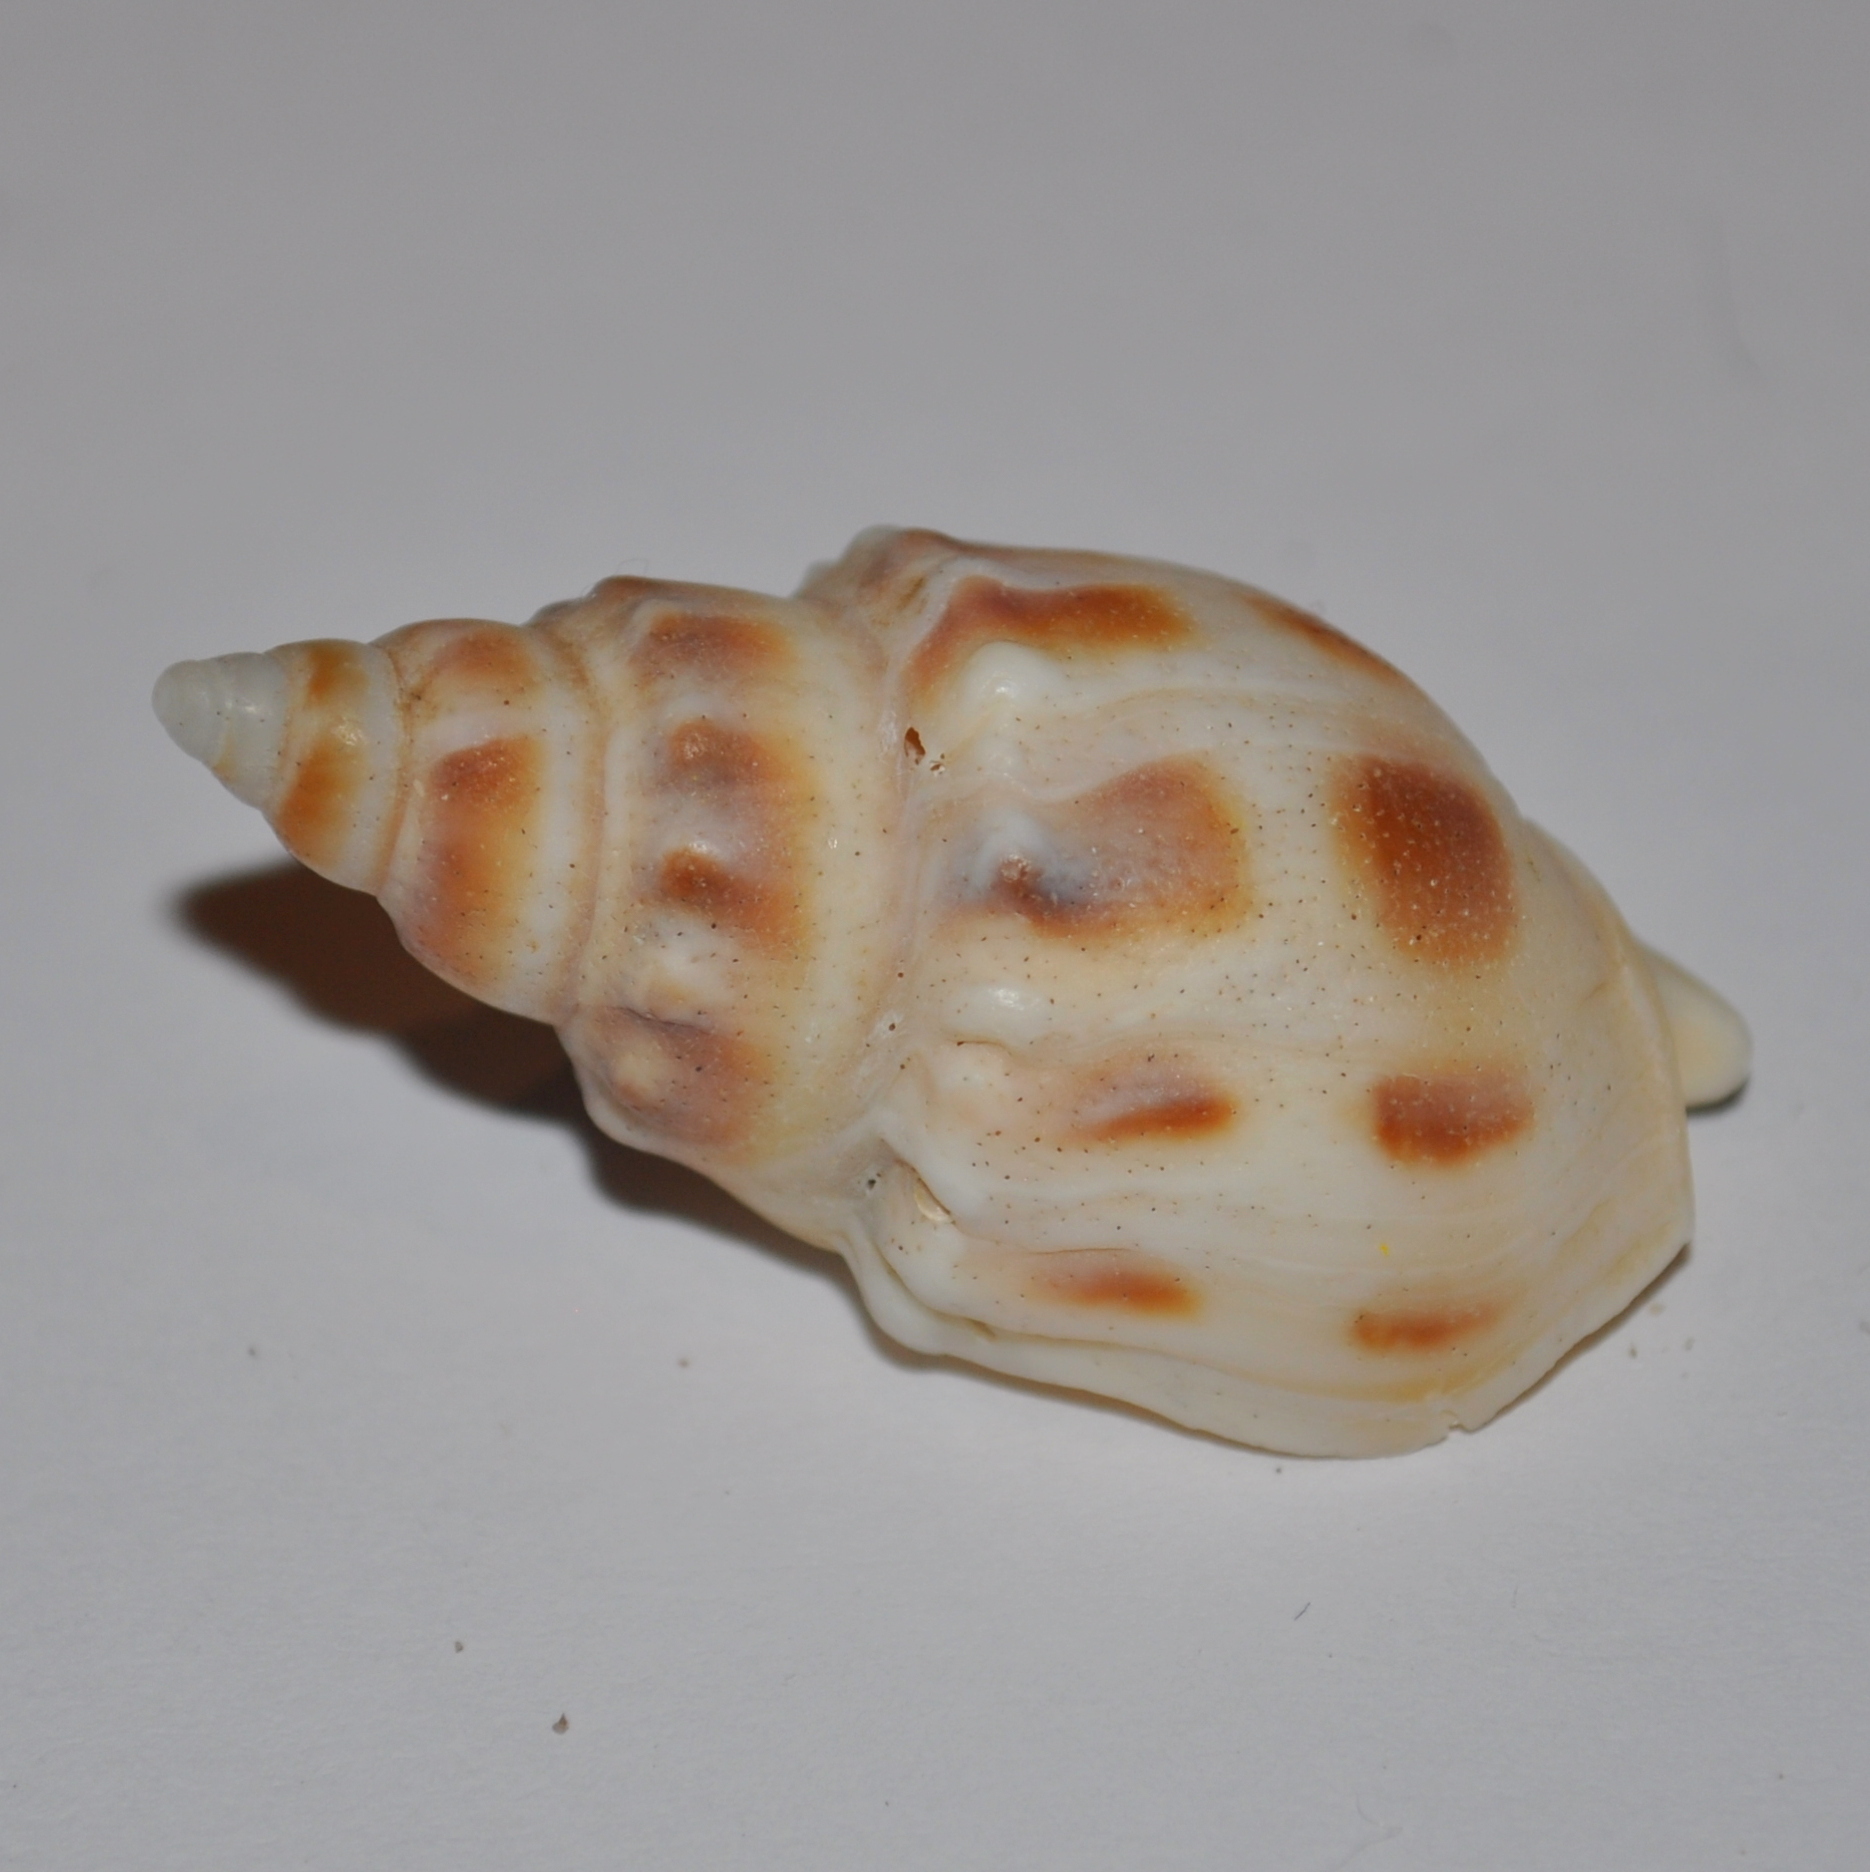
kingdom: Animalia
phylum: Mollusca
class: Gastropoda
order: Neogastropoda
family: Buccinanopsidae
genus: Buccinanops
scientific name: Buccinanops monilifer
